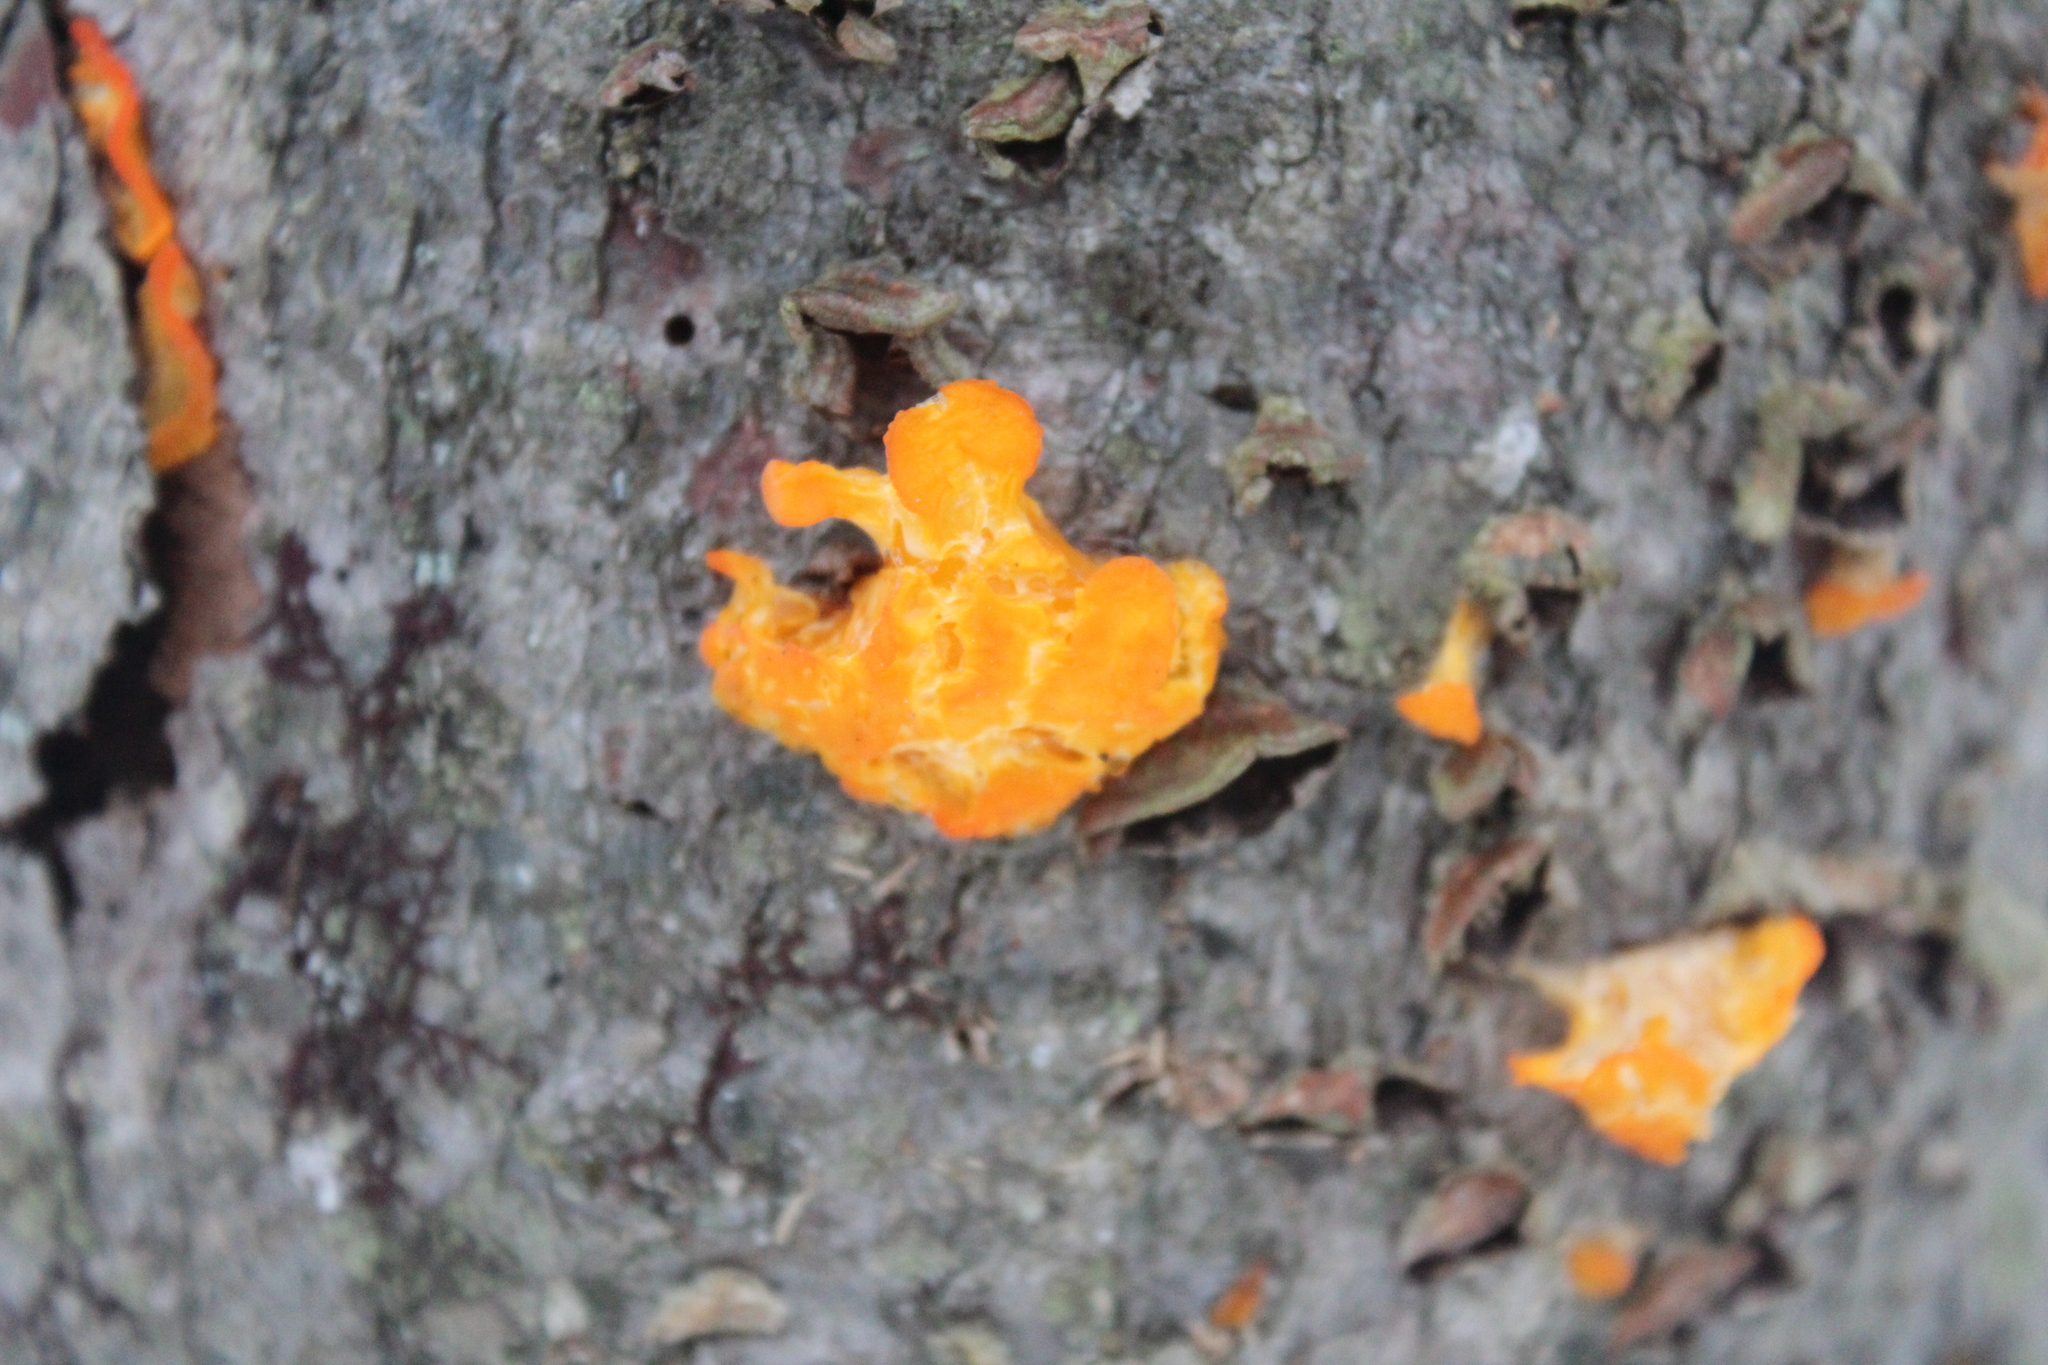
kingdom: Fungi
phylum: Basidiomycota
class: Dacrymycetes
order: Dacrymycetales
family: Dacrymycetaceae
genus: Dacrymyces
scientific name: Dacrymyces chrysospermus
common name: Orange jelly spot
